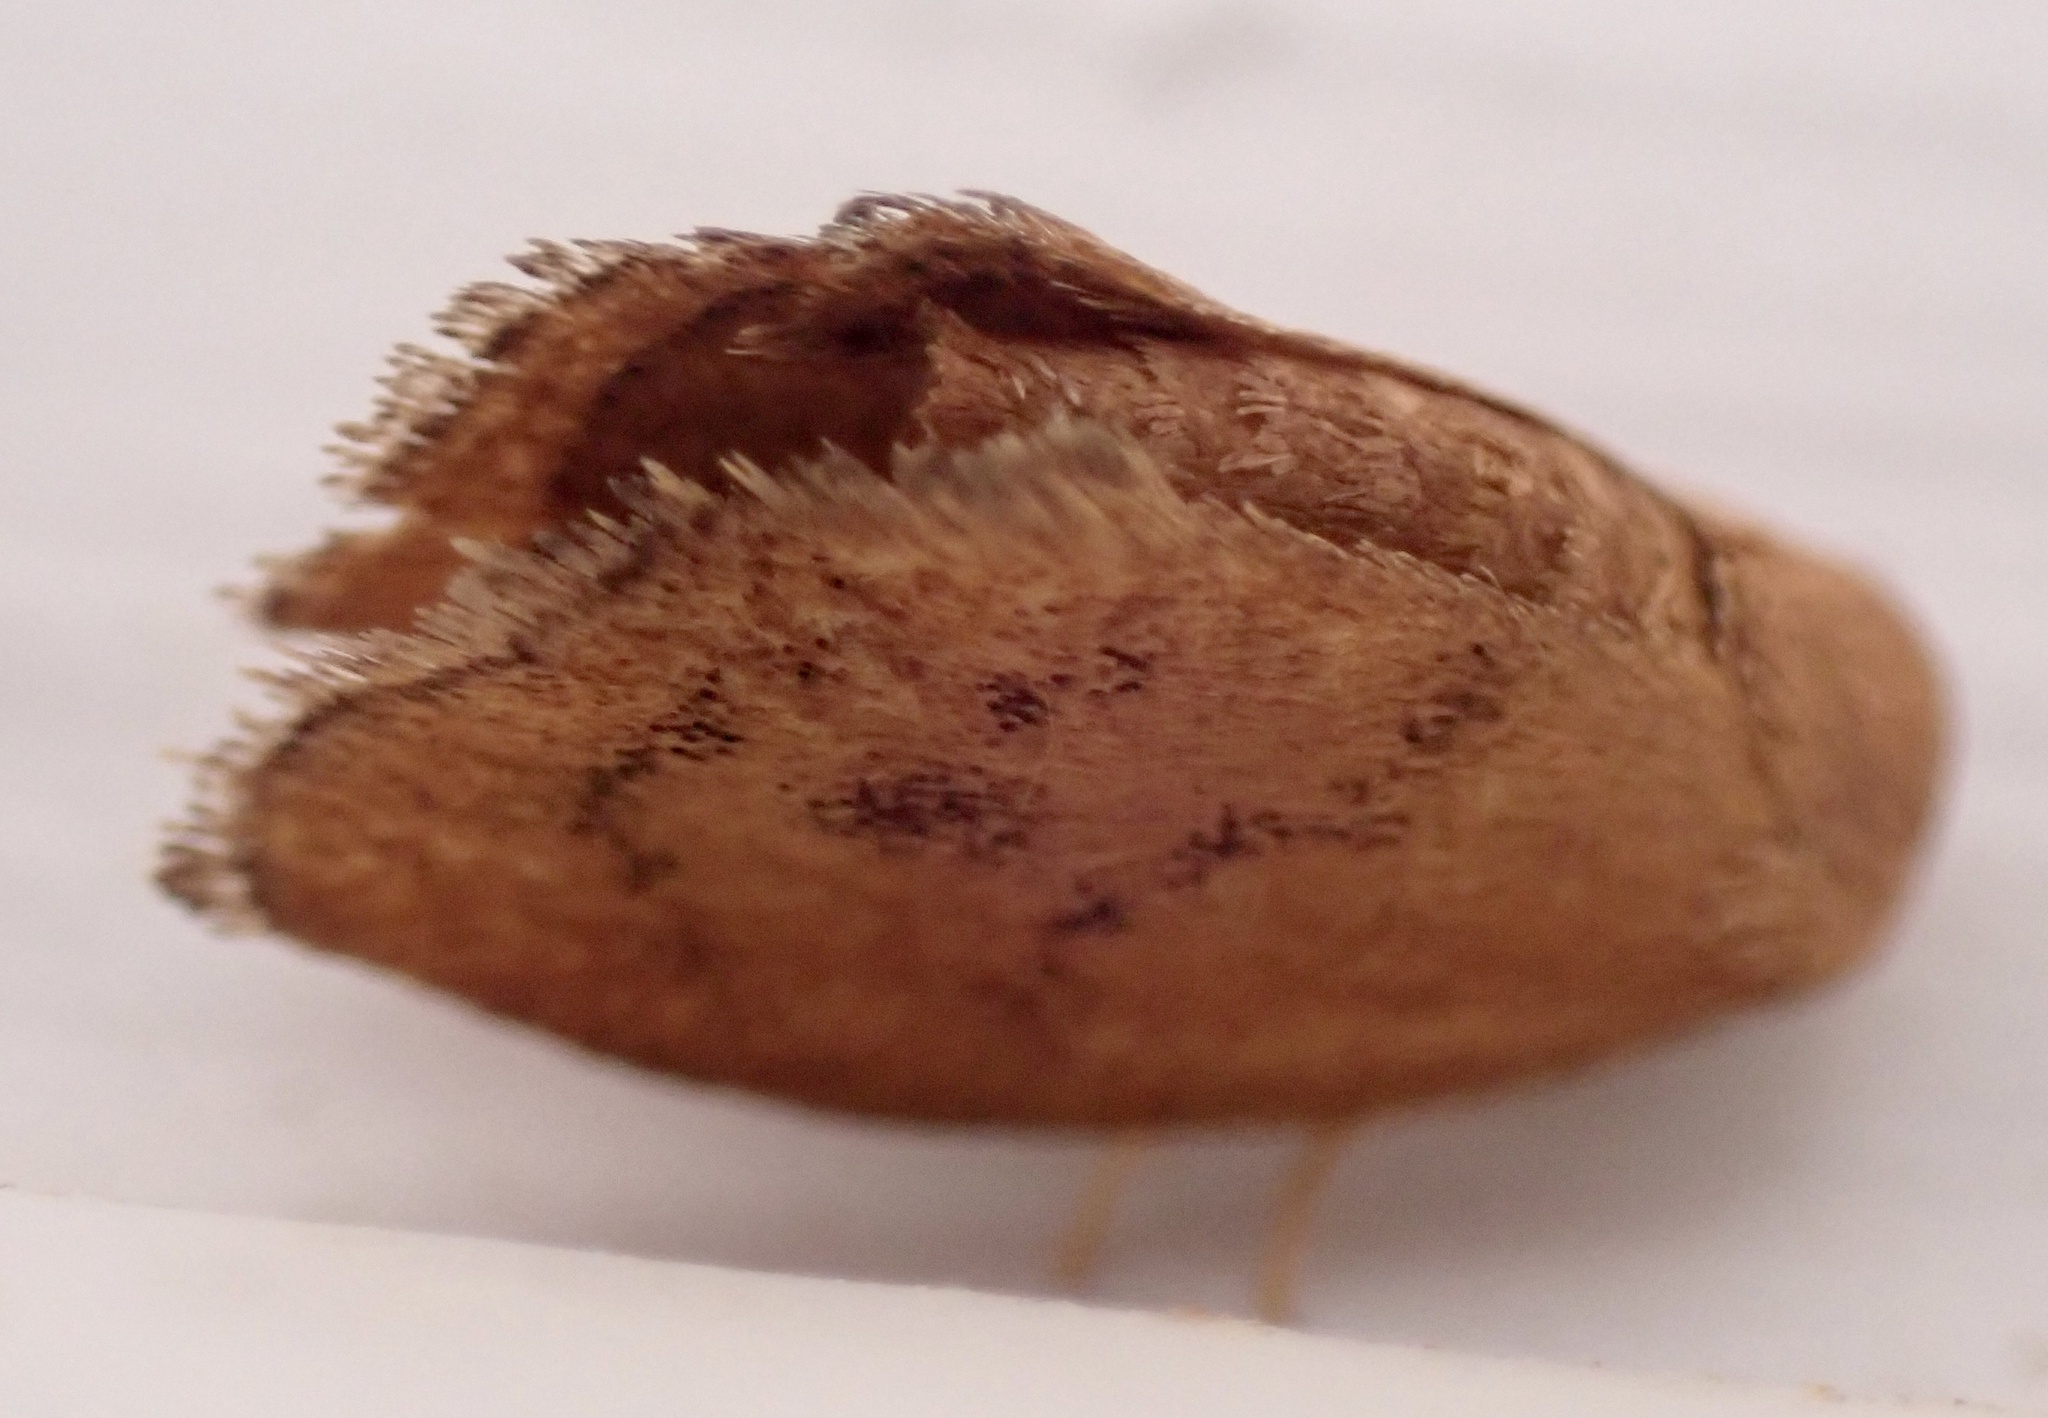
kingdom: Animalia
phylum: Arthropoda
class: Insecta
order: Lepidoptera
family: Limacodidae
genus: Heterogenea
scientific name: Heterogenea shurtleffi
